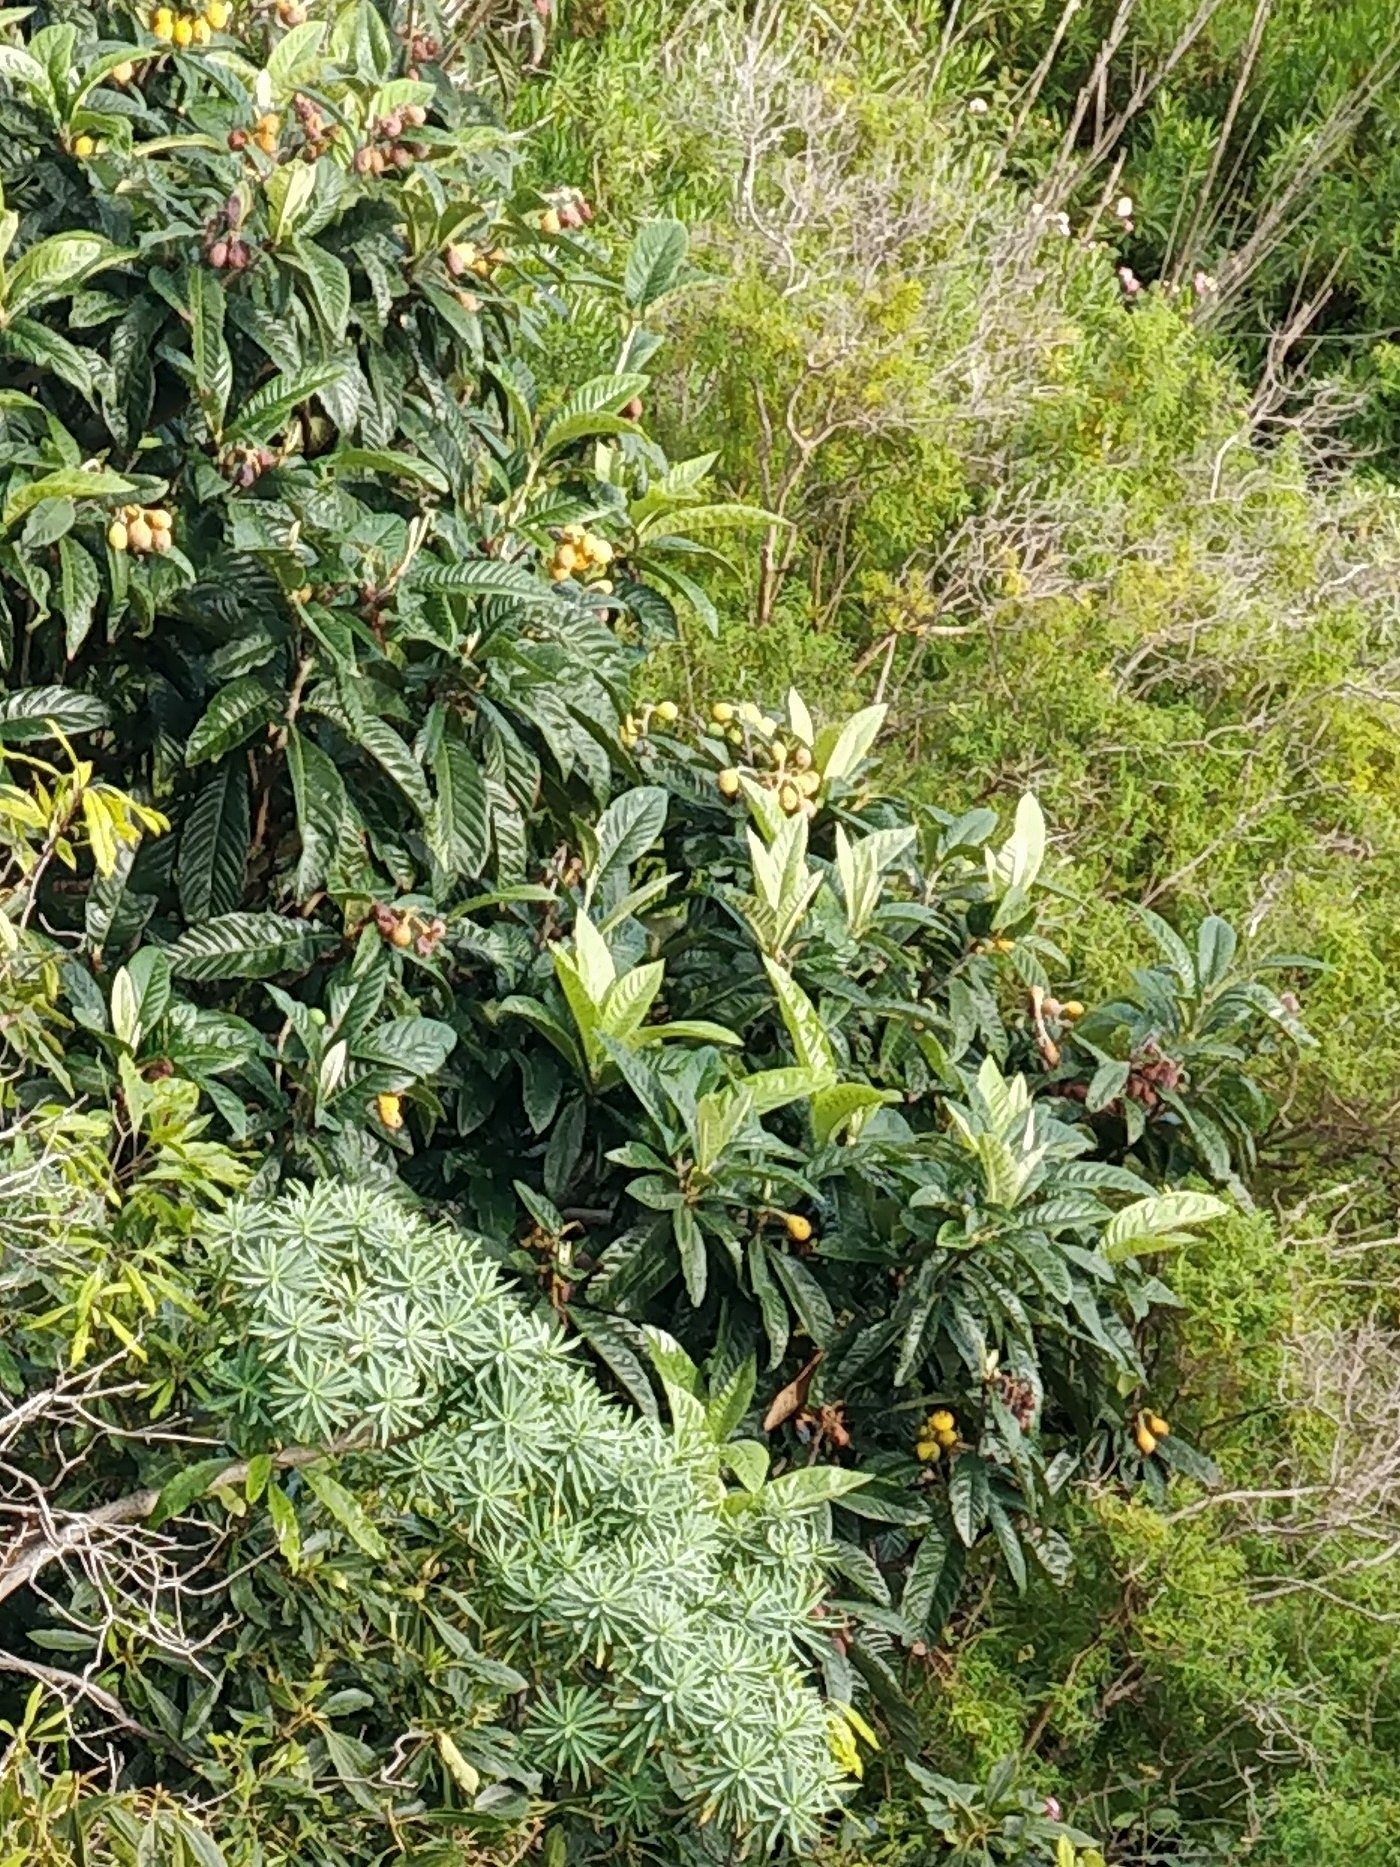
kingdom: Plantae
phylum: Tracheophyta
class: Magnoliopsida
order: Rosales
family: Rosaceae
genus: Rhaphiolepis
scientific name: Rhaphiolepis bibas
